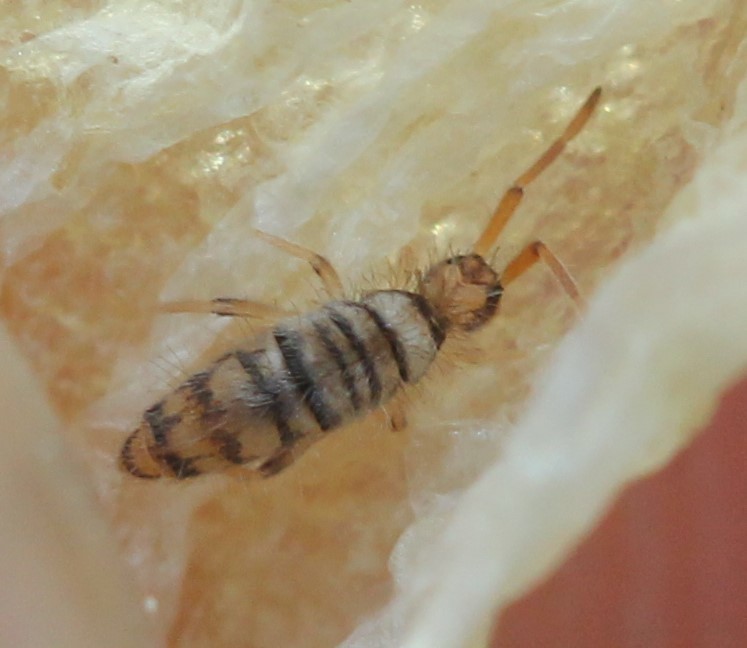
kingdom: Animalia
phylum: Arthropoda
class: Collembola
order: Entomobryomorpha
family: Entomobryidae
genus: Entomobrya
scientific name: Entomobrya atrocincta
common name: Springtail
